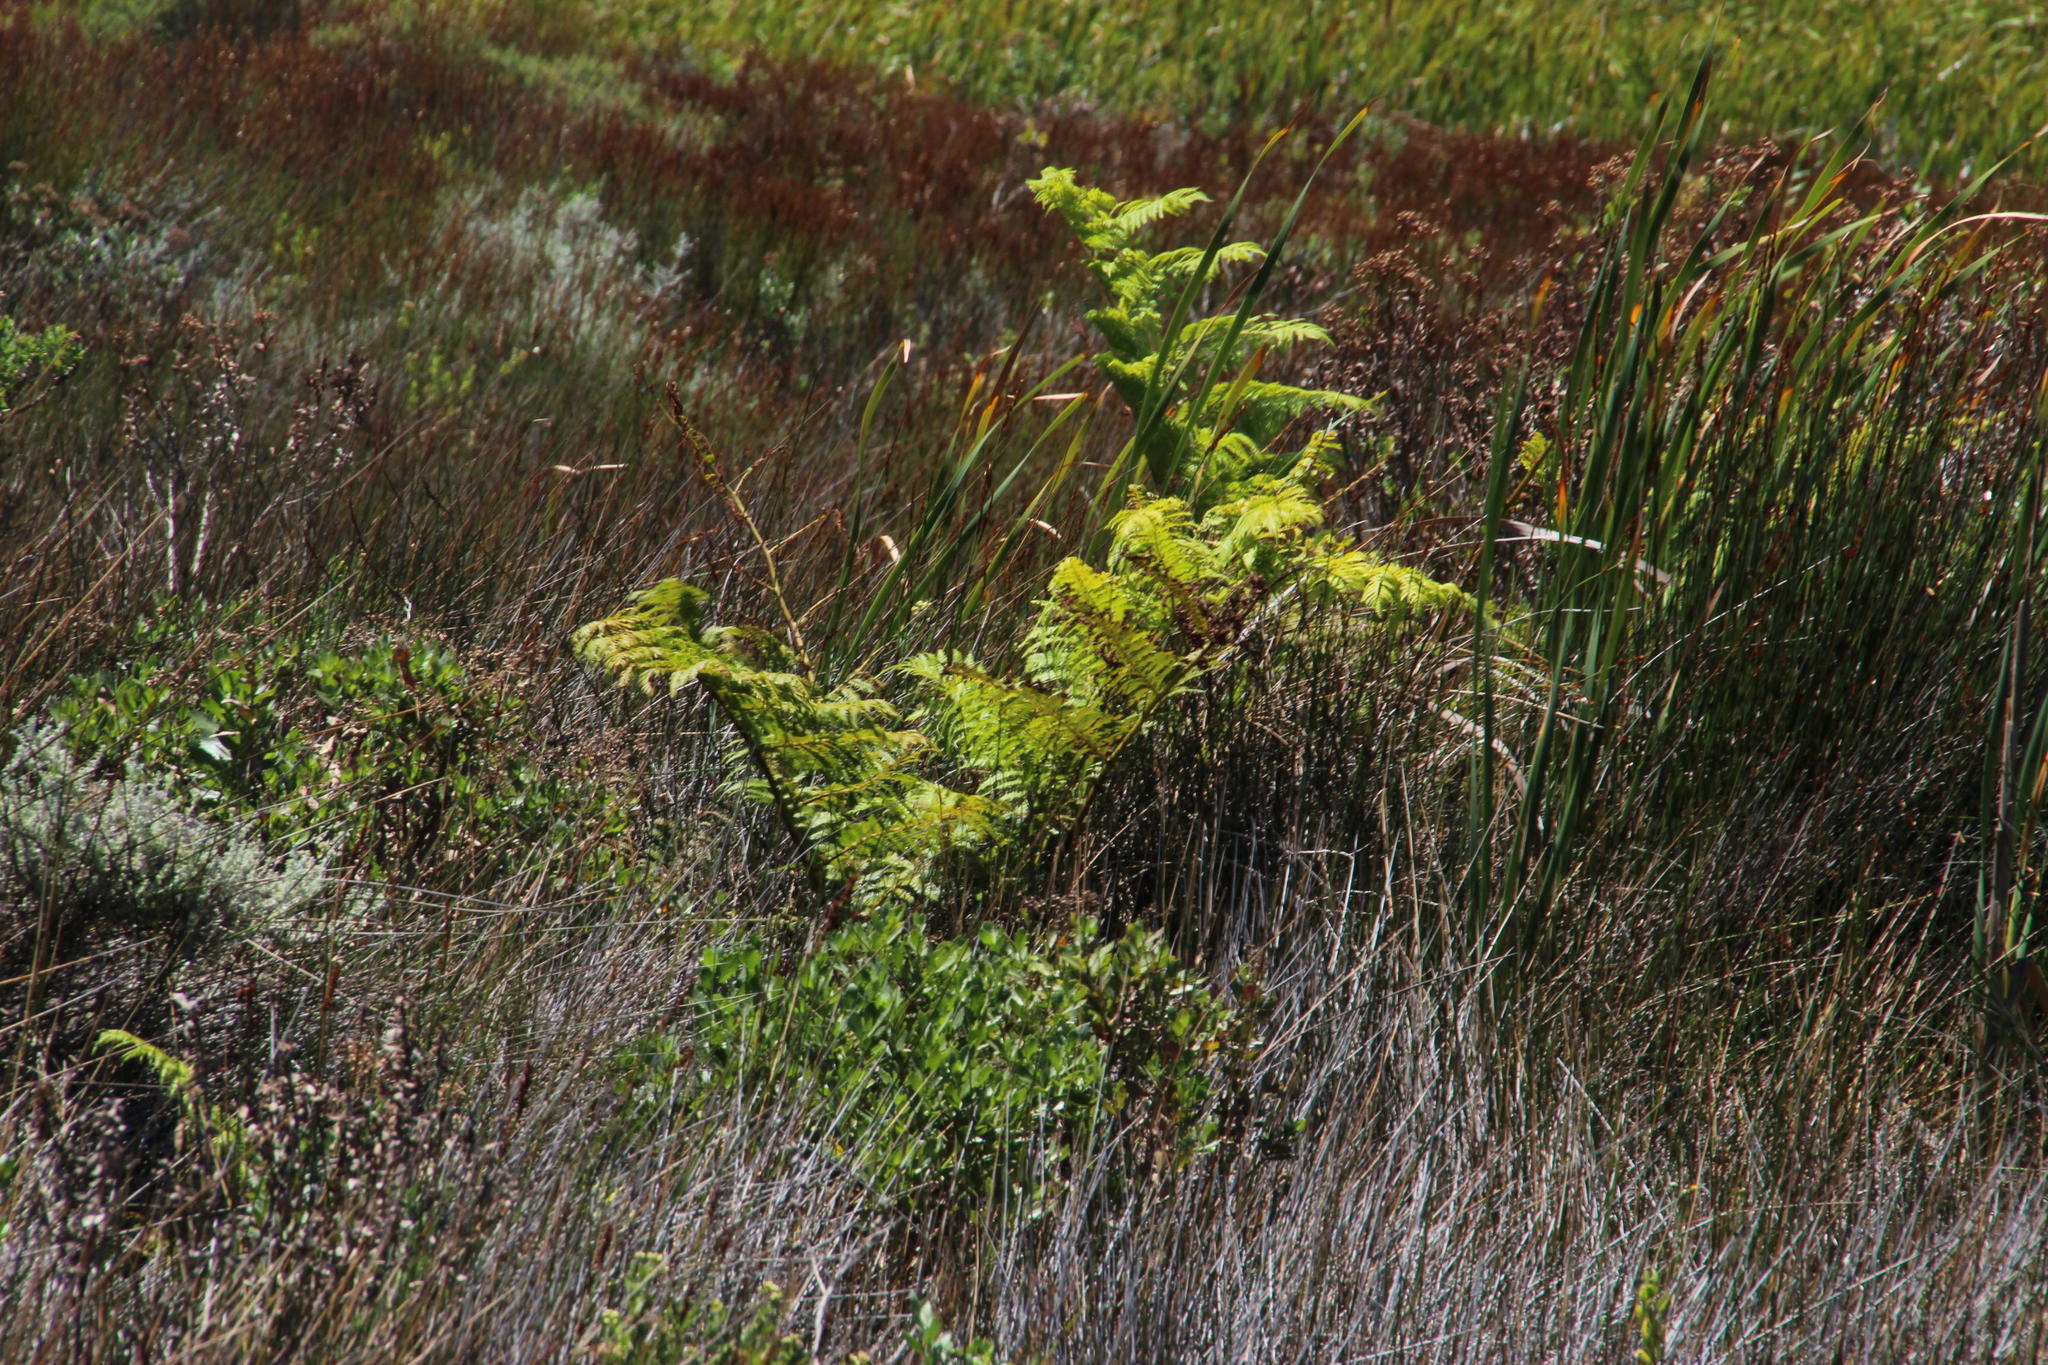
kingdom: Plantae
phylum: Tracheophyta
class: Polypodiopsida
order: Cyatheales
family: Cyatheaceae
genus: Sphaeropteris
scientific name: Sphaeropteris cooperi
